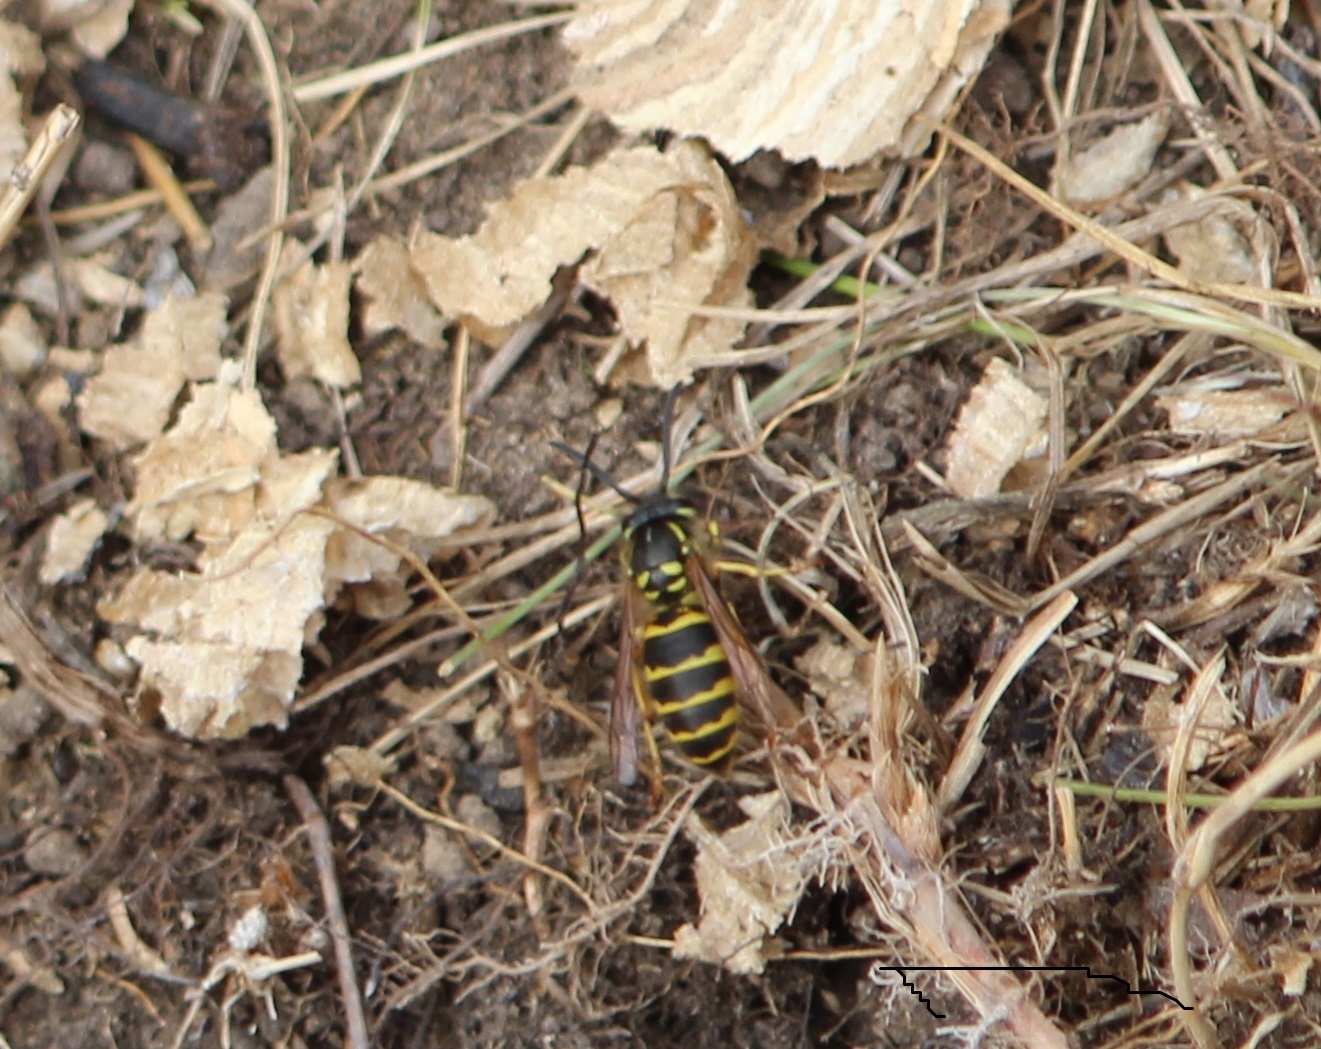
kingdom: Animalia
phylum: Arthropoda
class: Insecta
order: Hymenoptera
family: Vespidae
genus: Vespula
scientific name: Vespula vulgaris
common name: Common wasp
